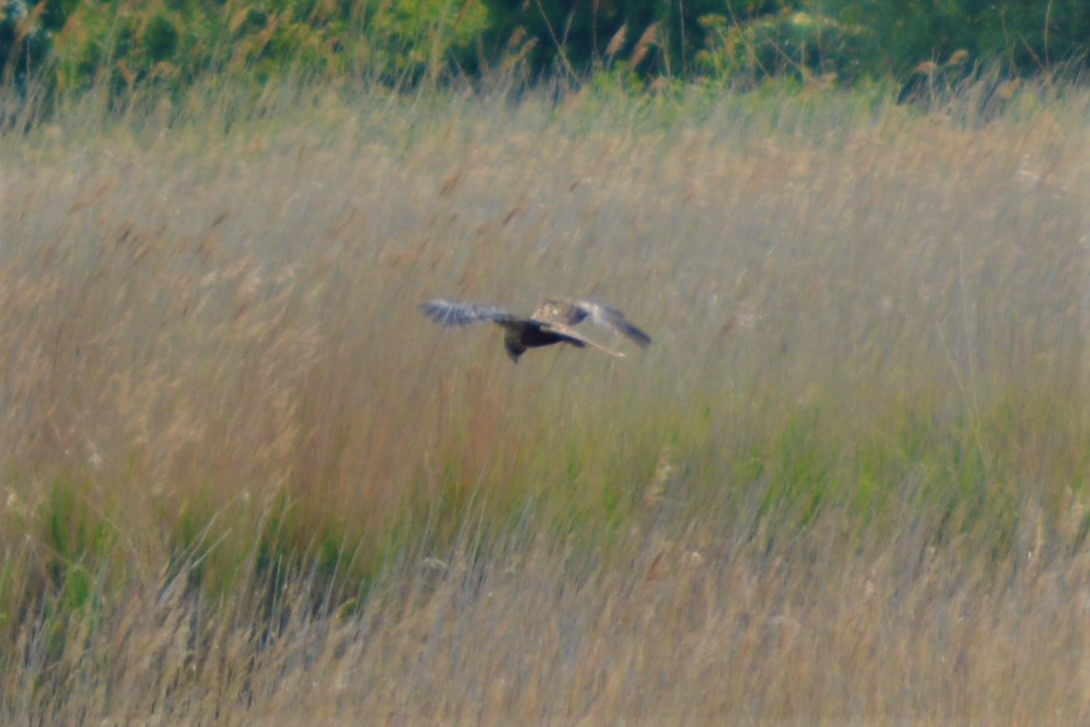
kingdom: Animalia
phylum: Chordata
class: Aves
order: Accipitriformes
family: Accipitridae
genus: Circus
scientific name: Circus aeruginosus
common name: Western marsh harrier
